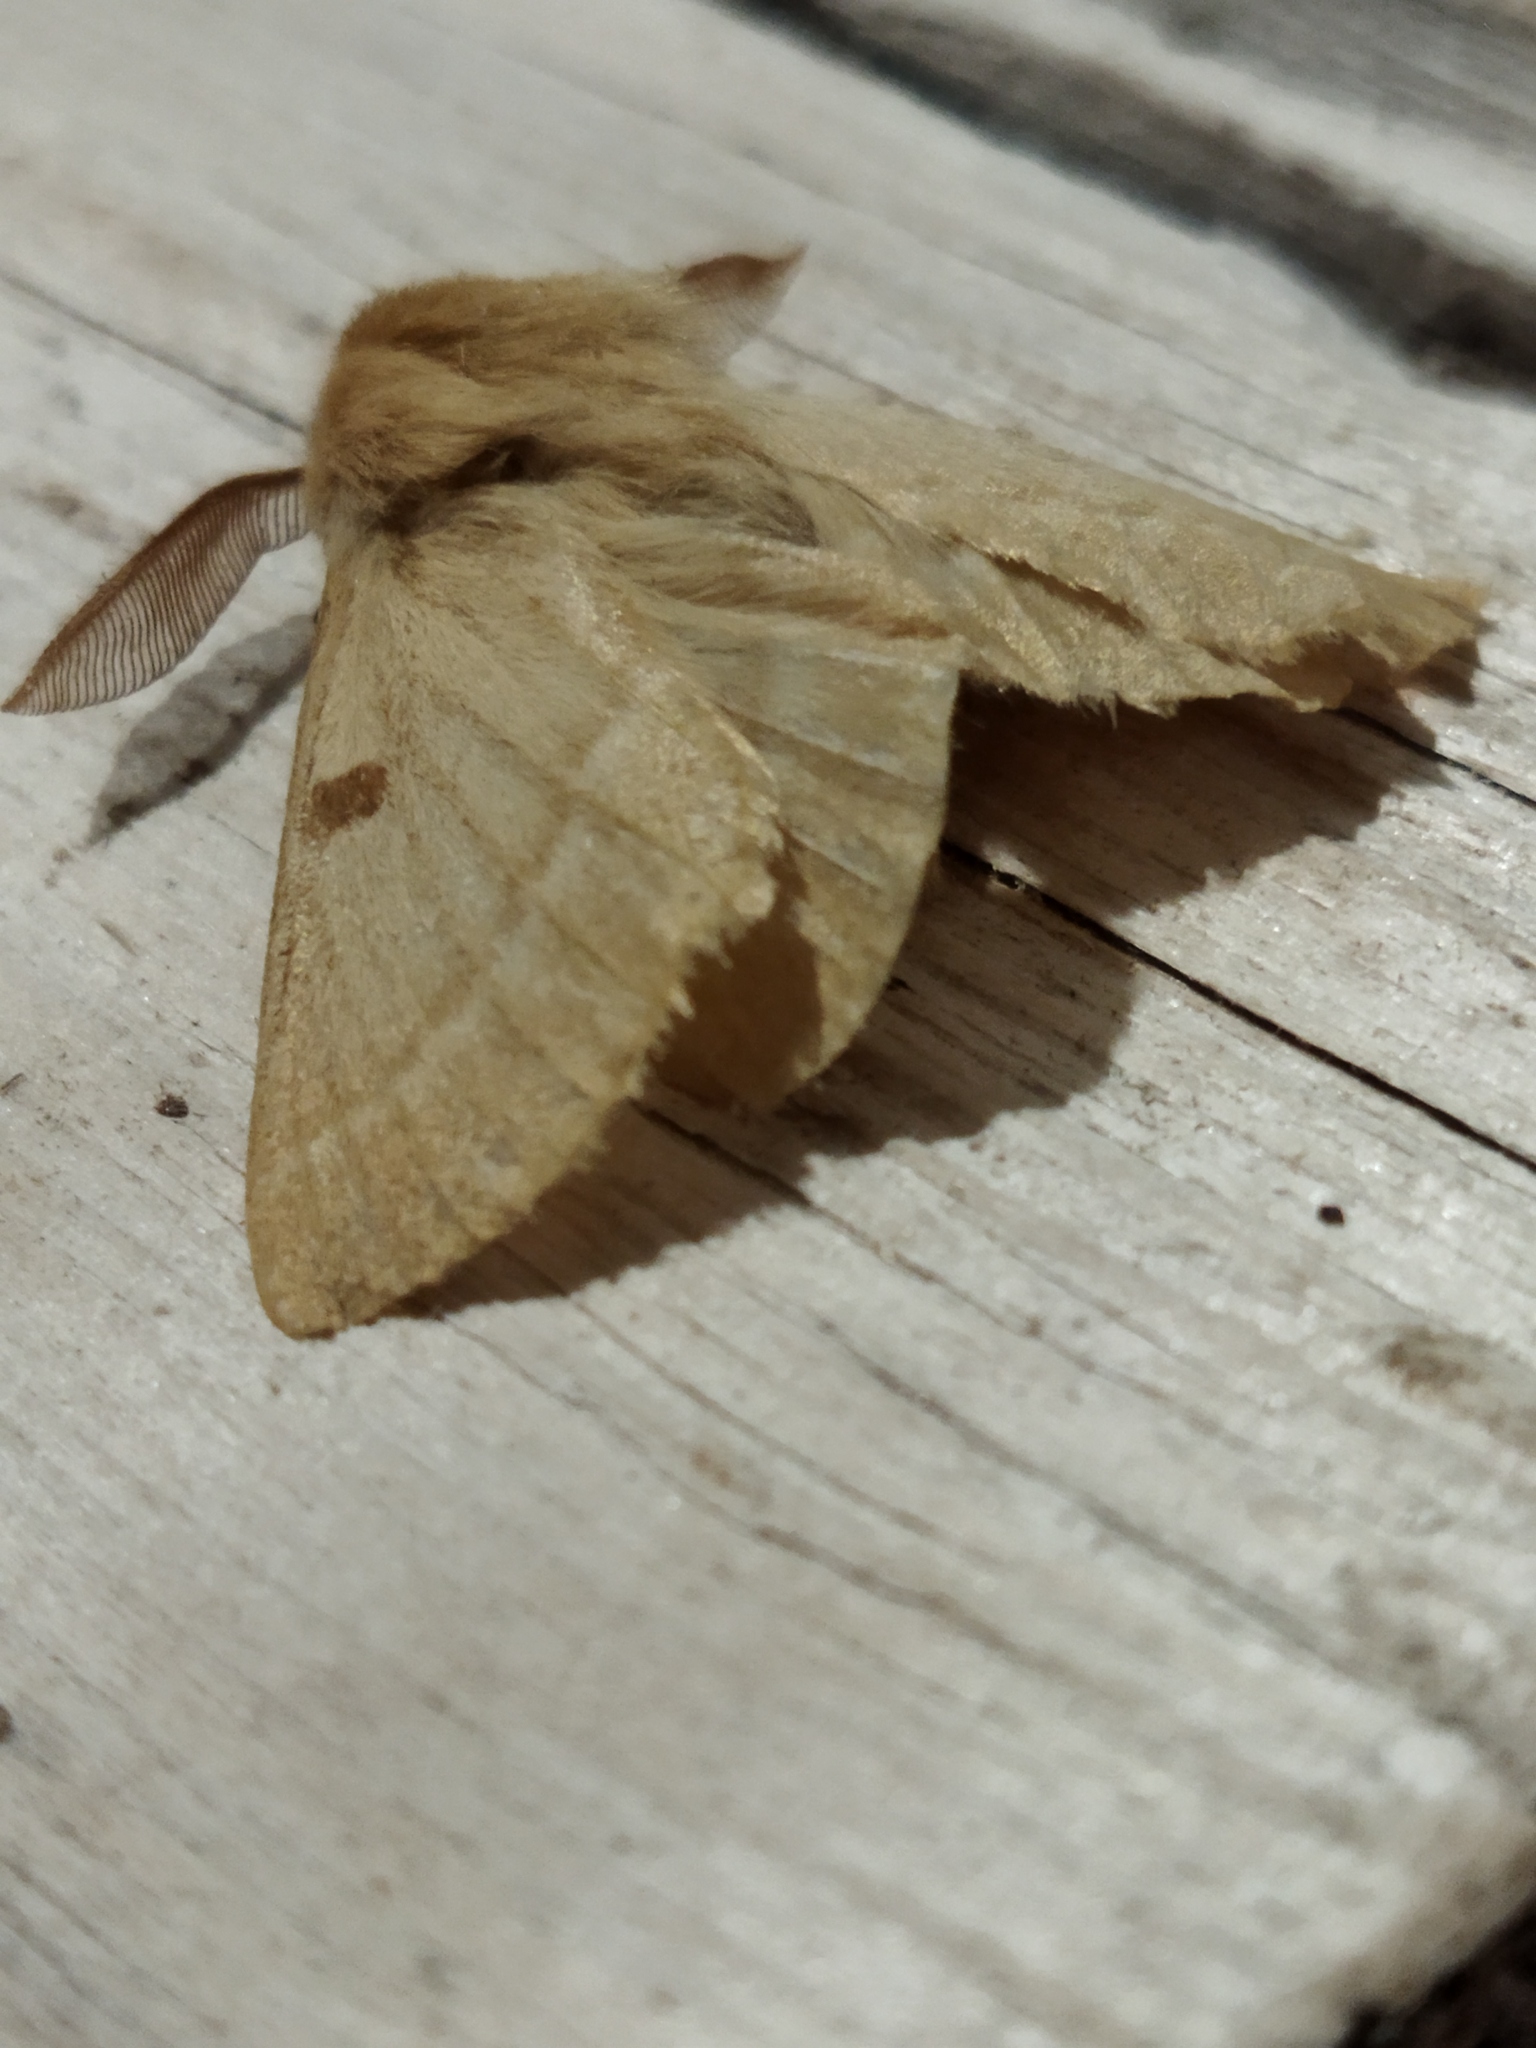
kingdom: Animalia
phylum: Arthropoda
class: Insecta
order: Lepidoptera
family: Brahmaeidae
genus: Lemonia
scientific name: Lemonia balcanica
